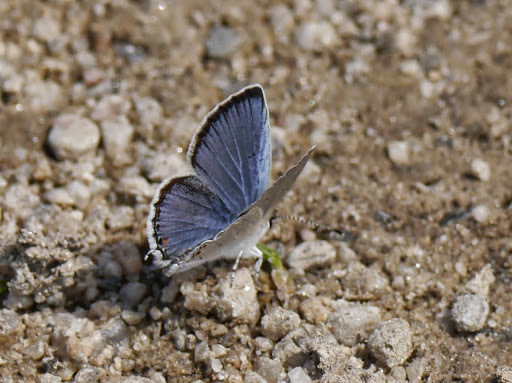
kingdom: Animalia
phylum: Arthropoda
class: Insecta
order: Lepidoptera
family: Lycaenidae
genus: Elkalyce
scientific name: Elkalyce comyntas
